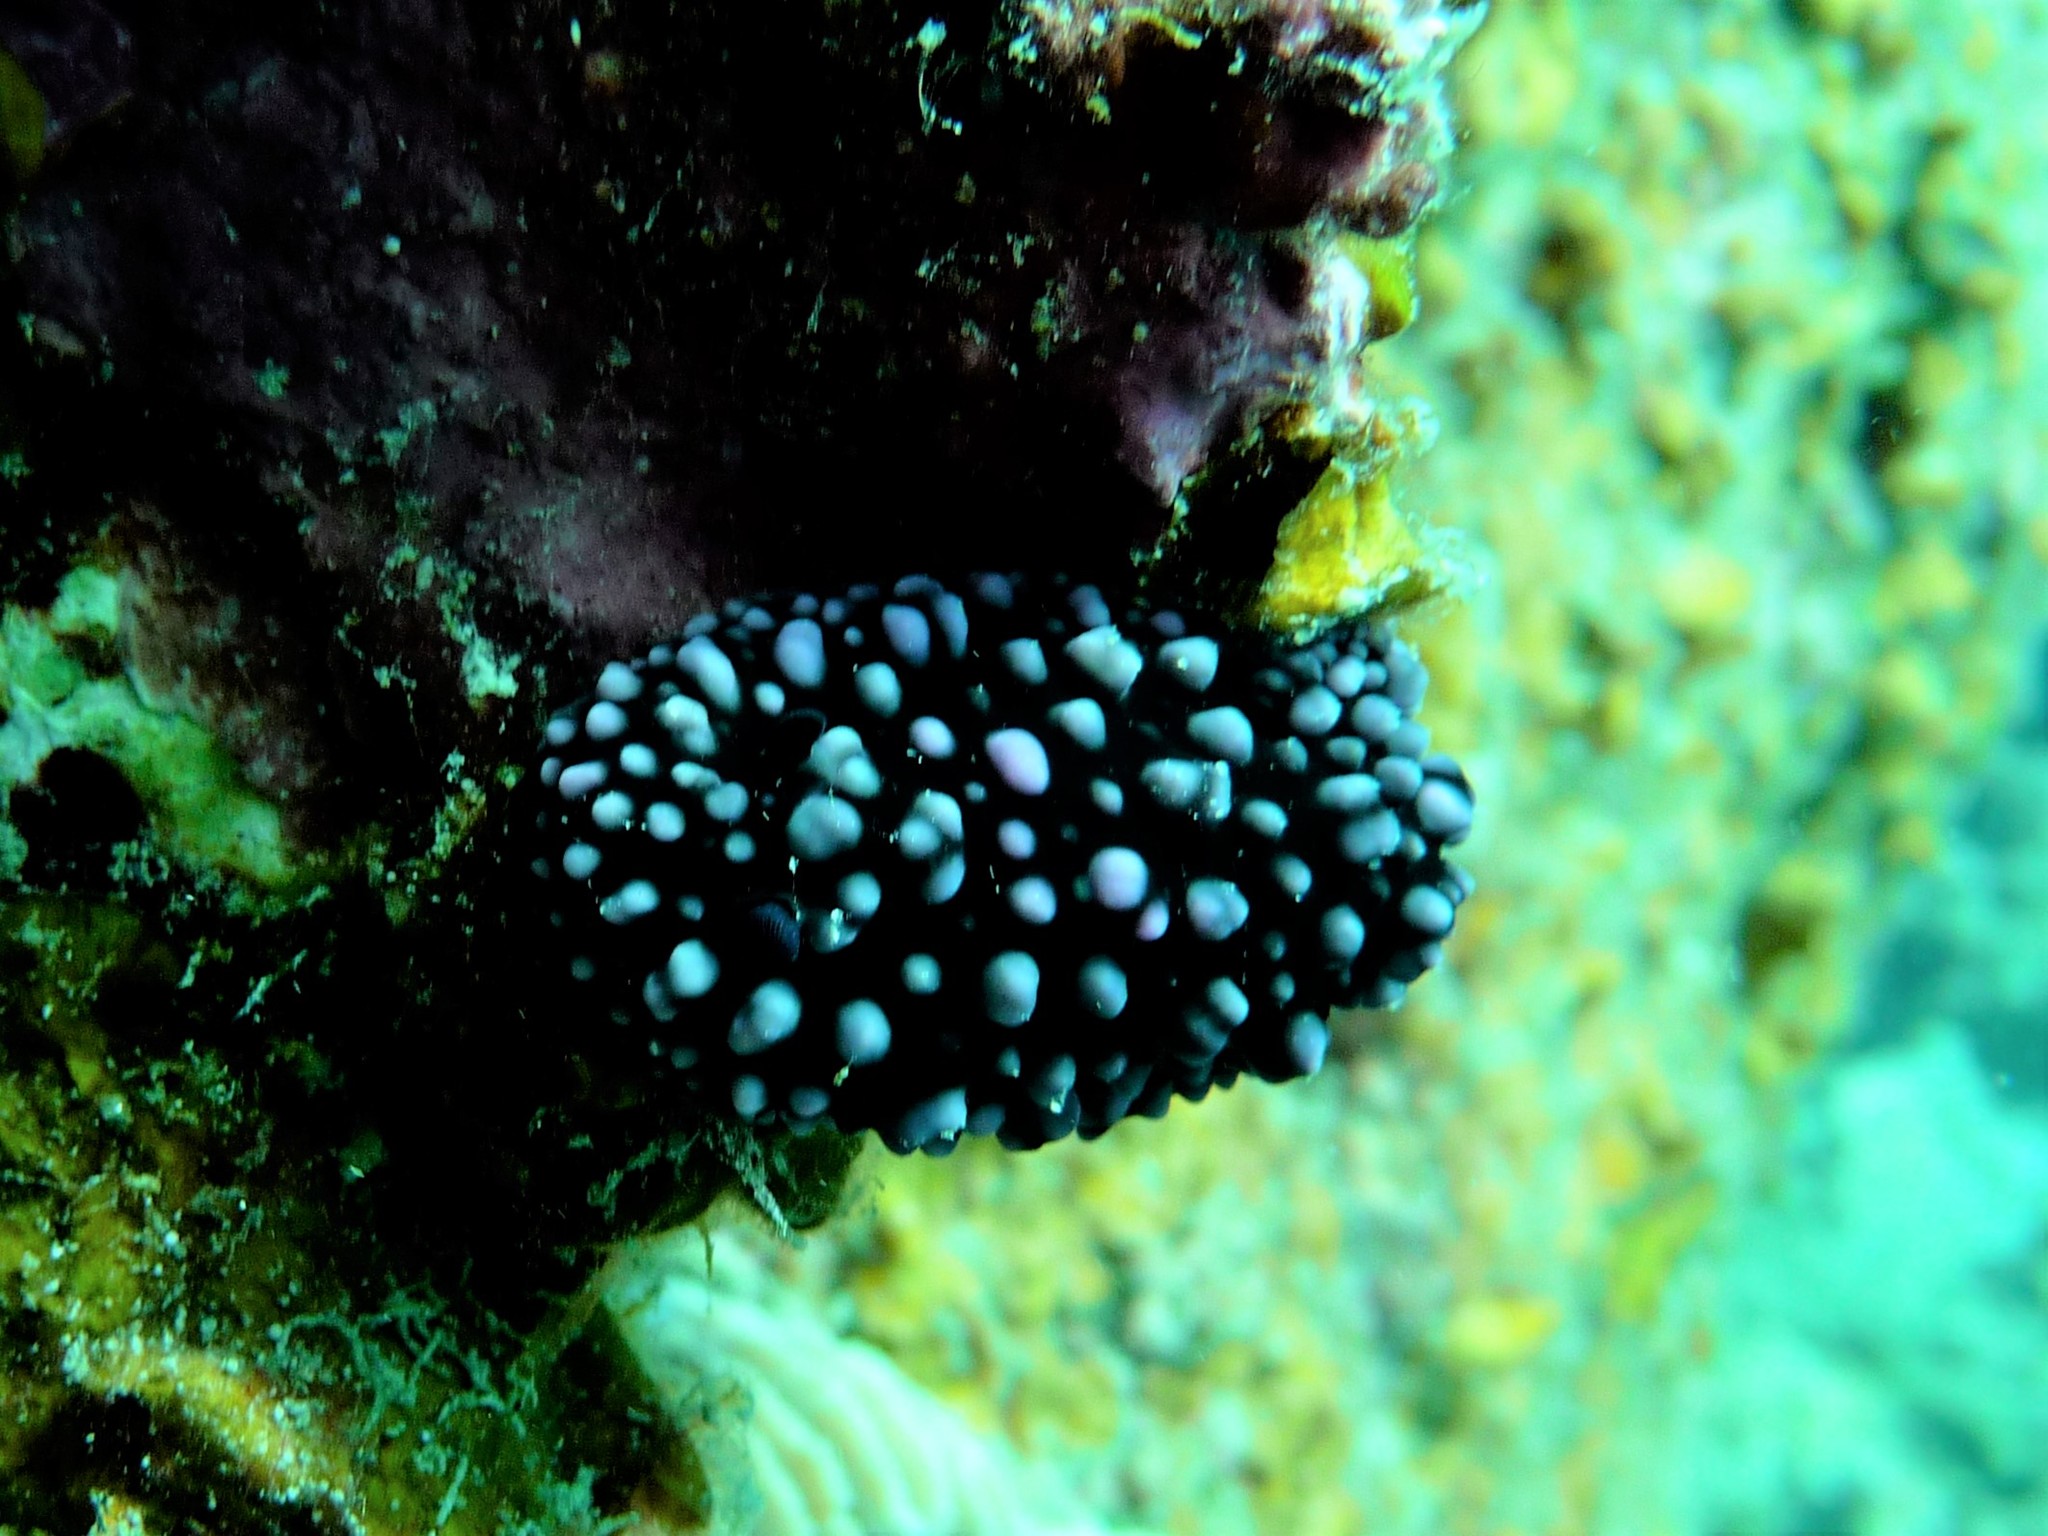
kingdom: Animalia
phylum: Mollusca
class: Gastropoda
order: Nudibranchia
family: Phyllidiidae
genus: Phyllidiella
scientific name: Phyllidiella nigra
